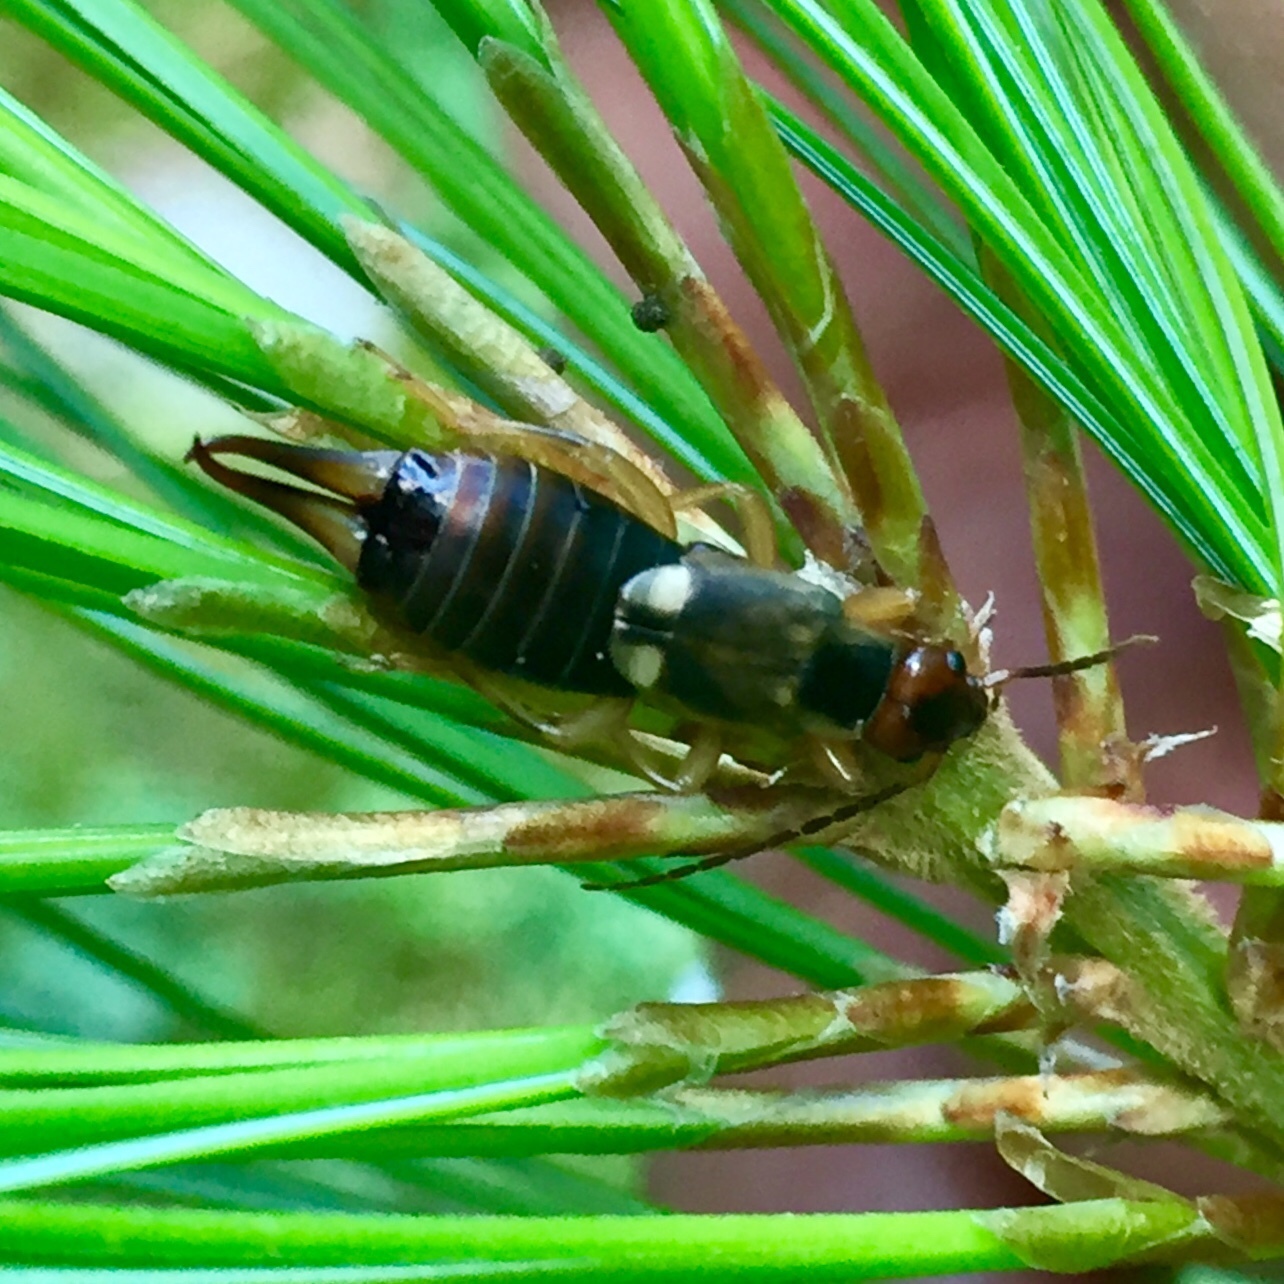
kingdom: Animalia
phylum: Arthropoda
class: Insecta
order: Dermaptera
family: Forficulidae
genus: Forficula
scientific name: Forficula
